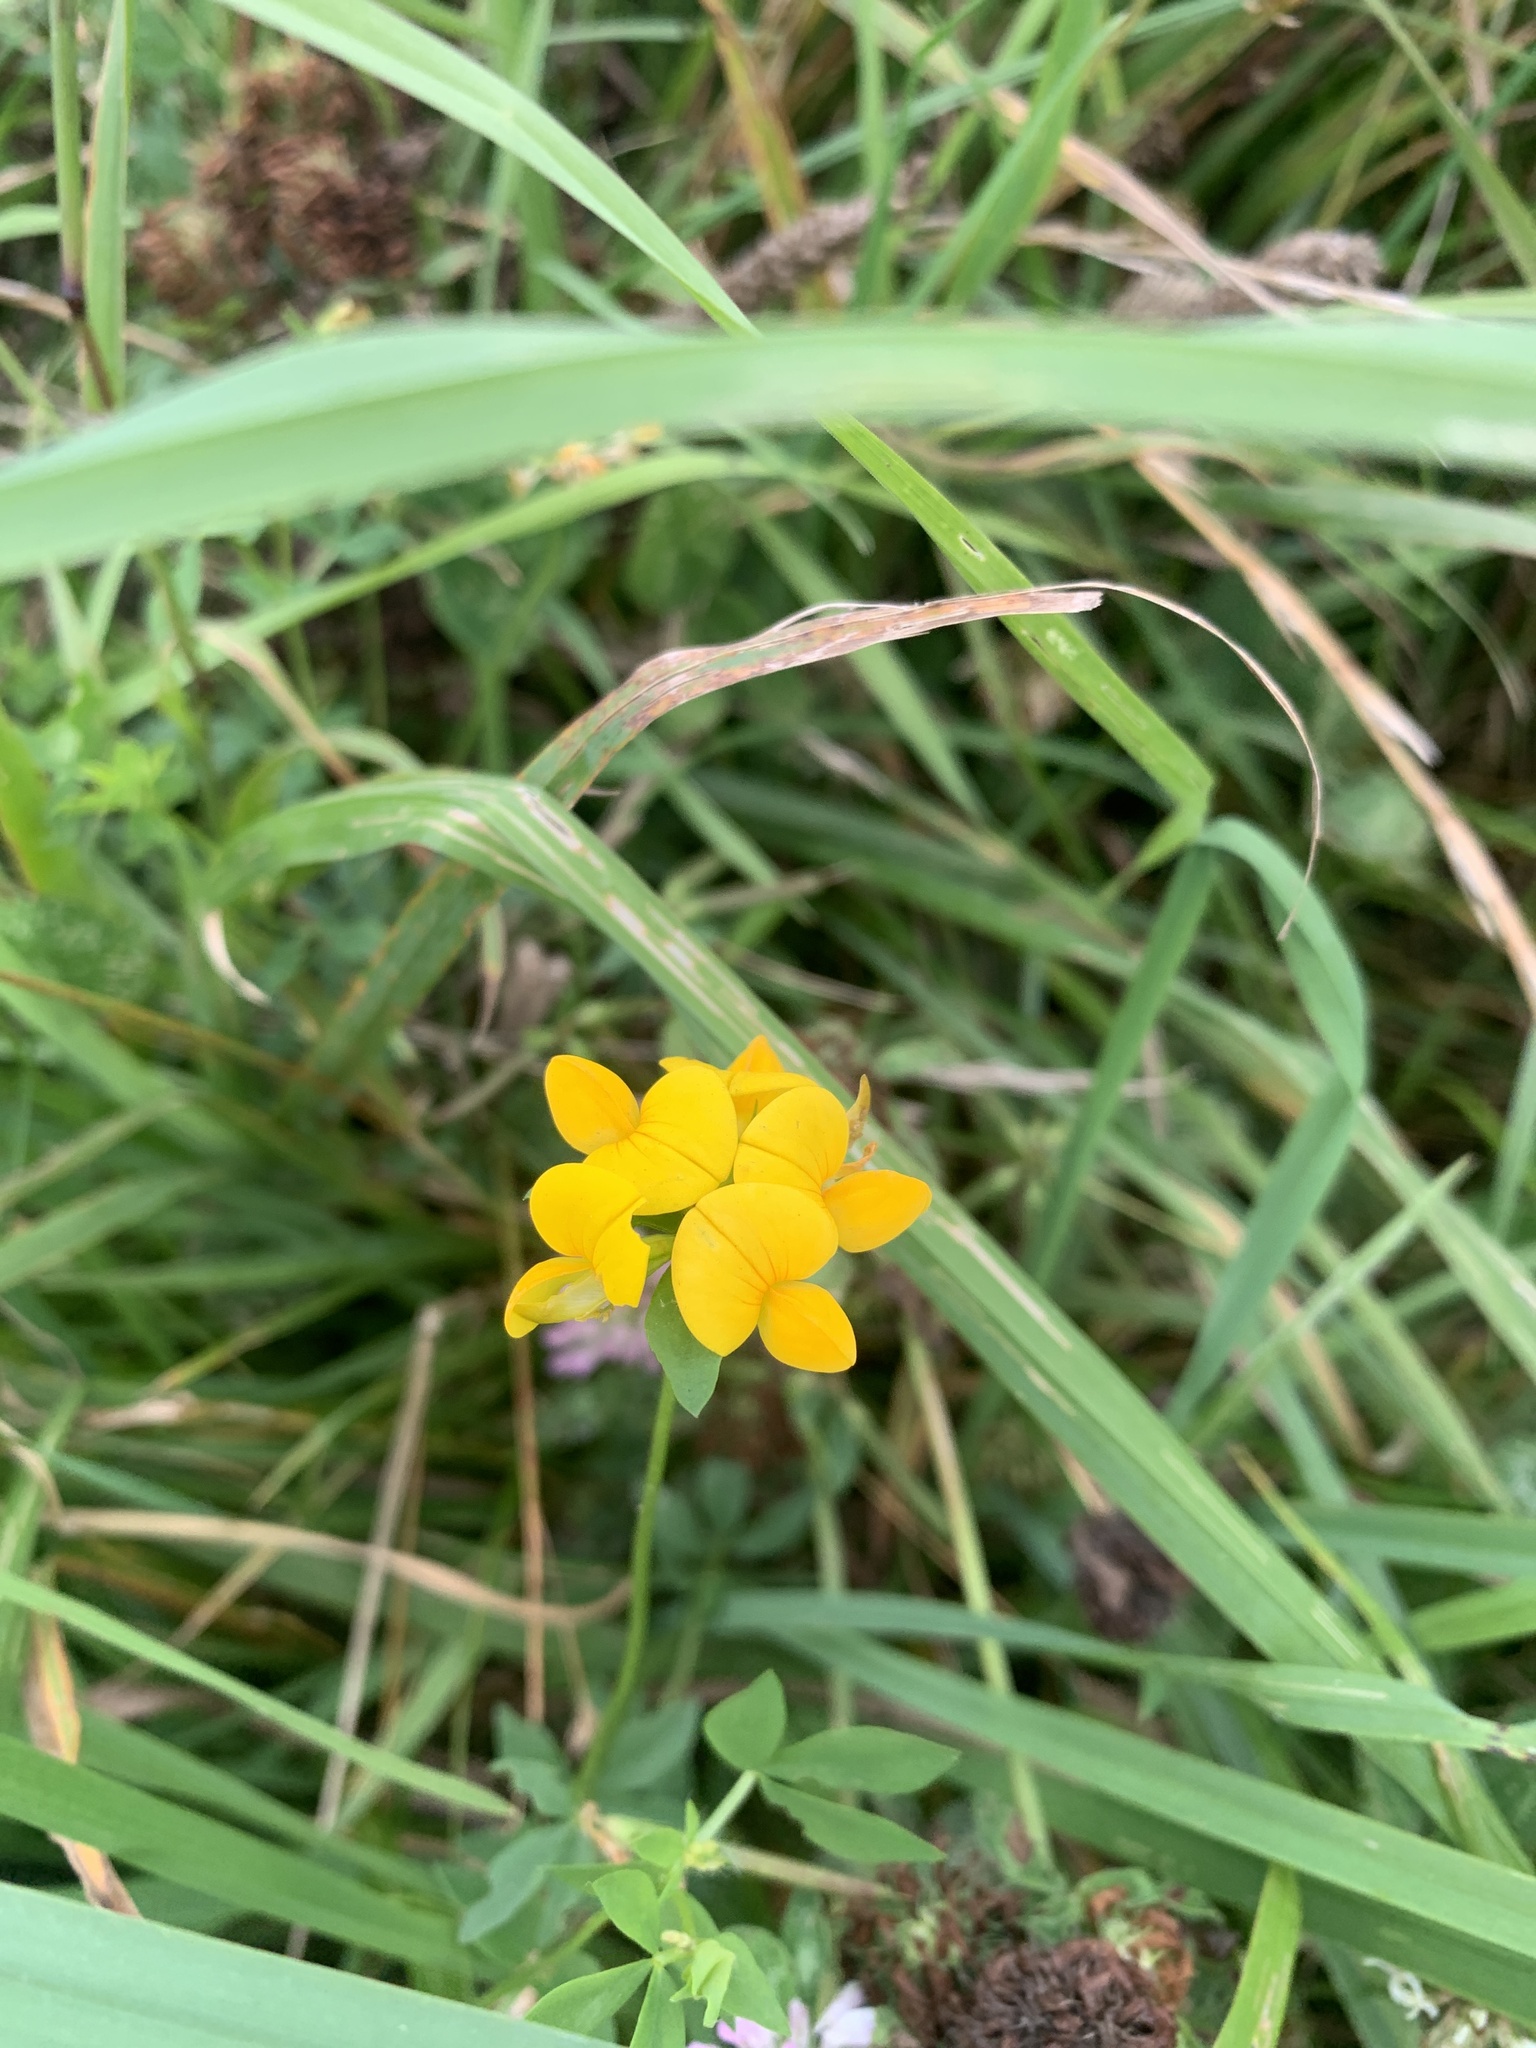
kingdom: Plantae
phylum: Tracheophyta
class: Magnoliopsida
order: Fabales
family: Fabaceae
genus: Lotus
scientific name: Lotus corniculatus
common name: Common bird's-foot-trefoil
